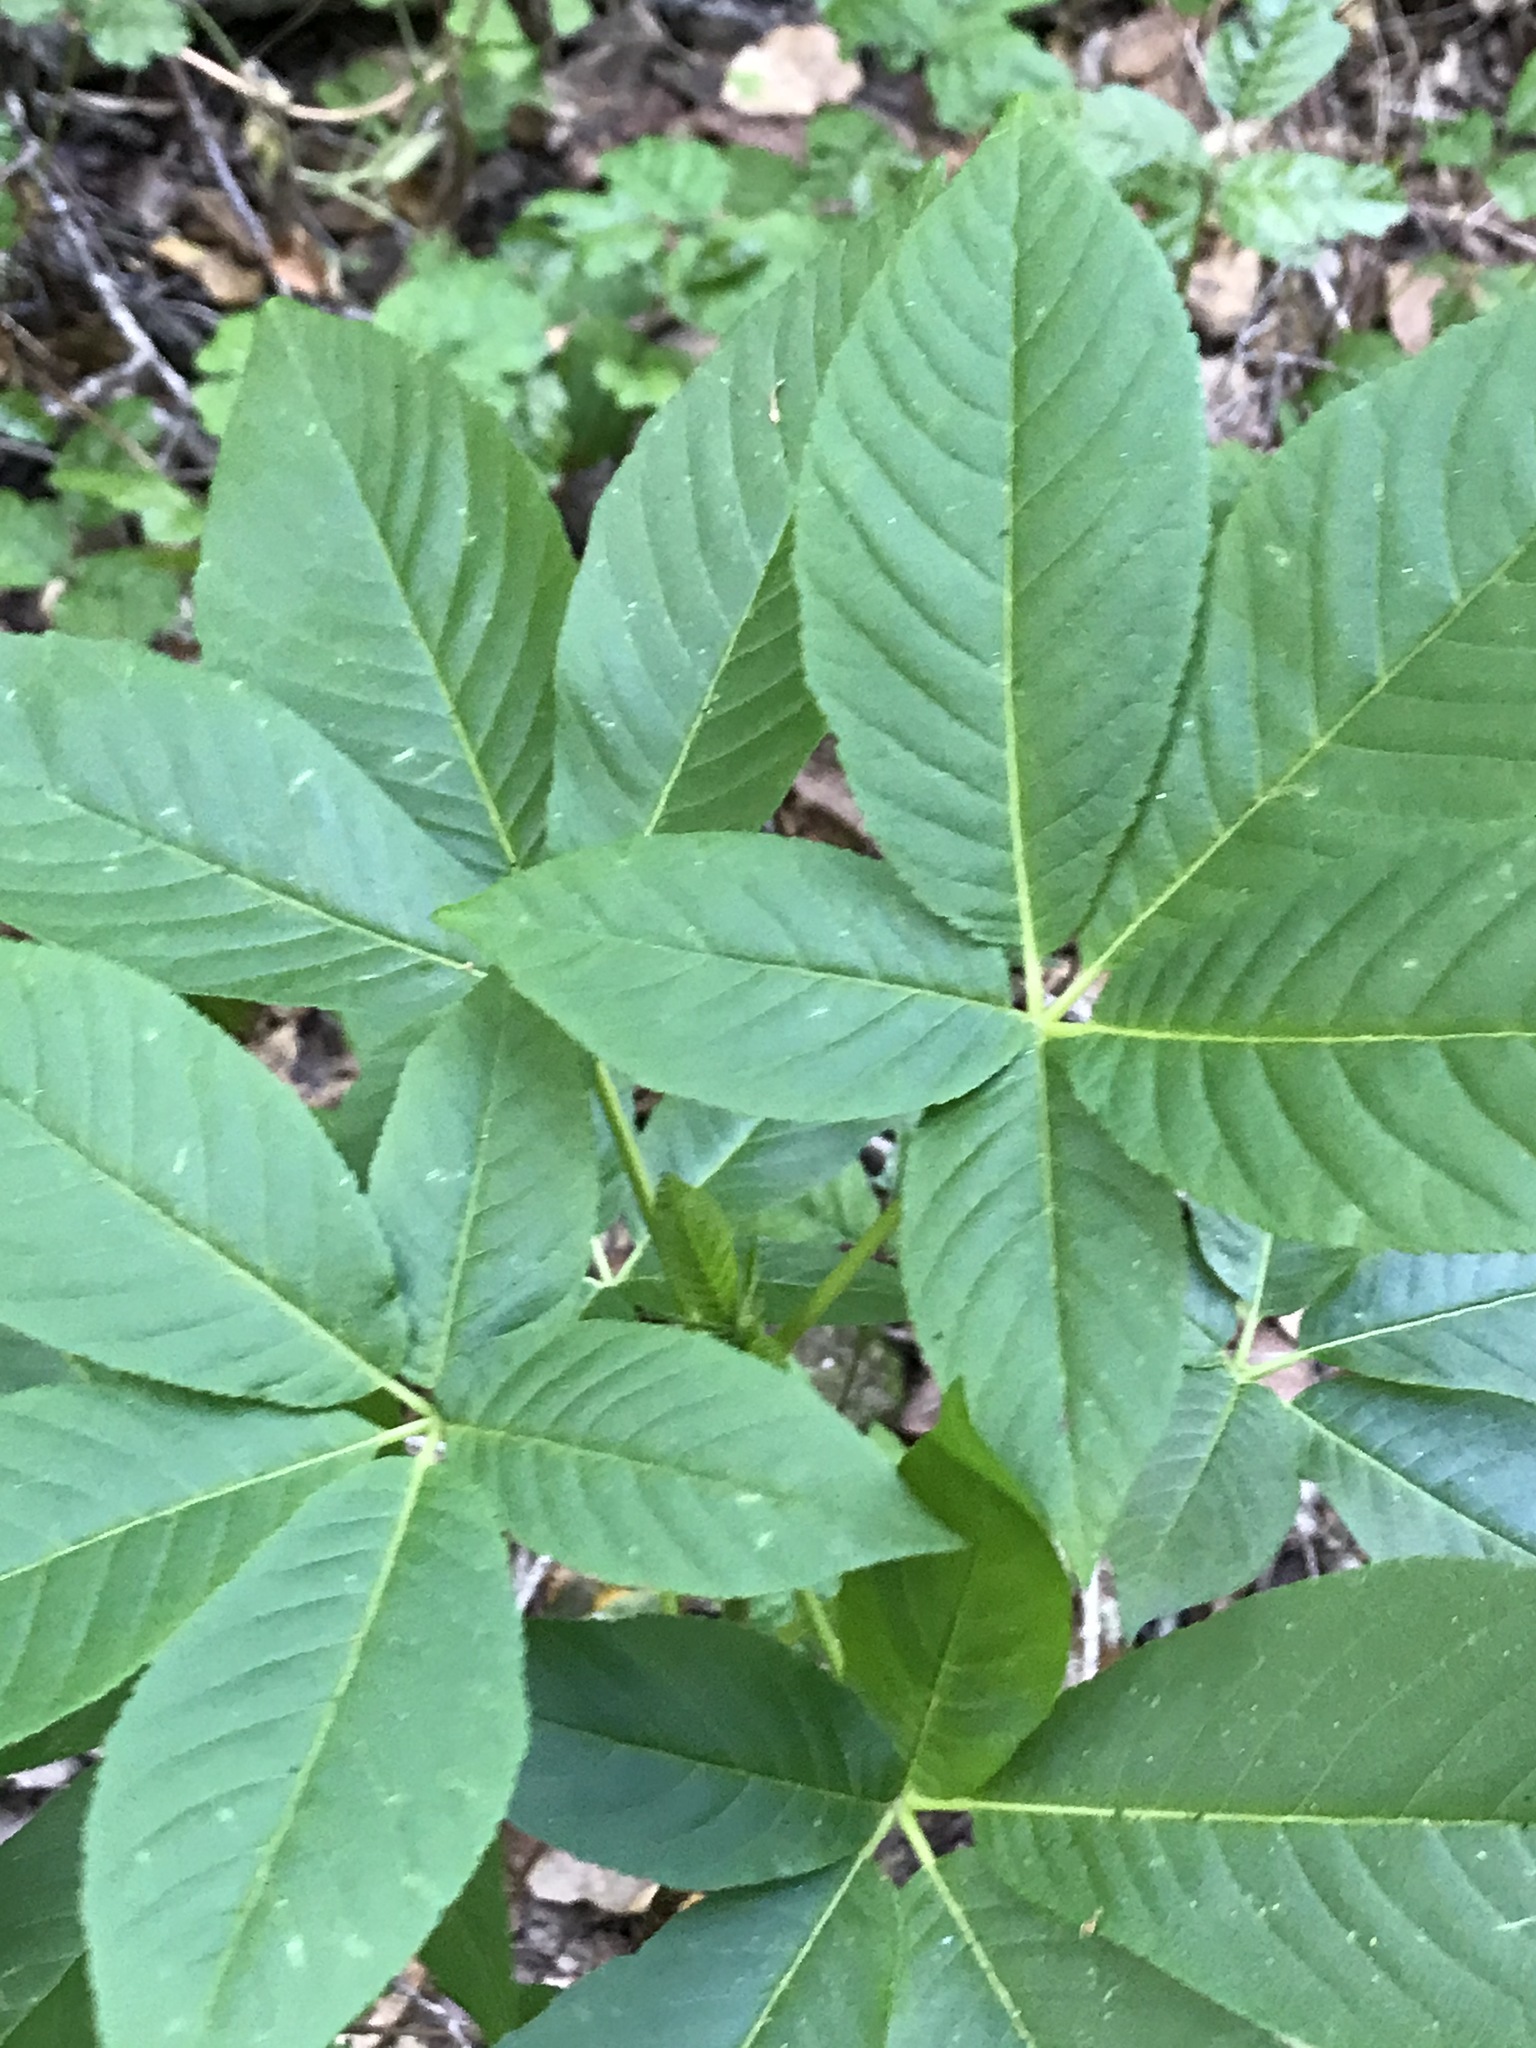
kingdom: Plantae
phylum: Tracheophyta
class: Magnoliopsida
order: Sapindales
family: Sapindaceae
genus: Aesculus
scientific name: Aesculus californica
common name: California buckeye
